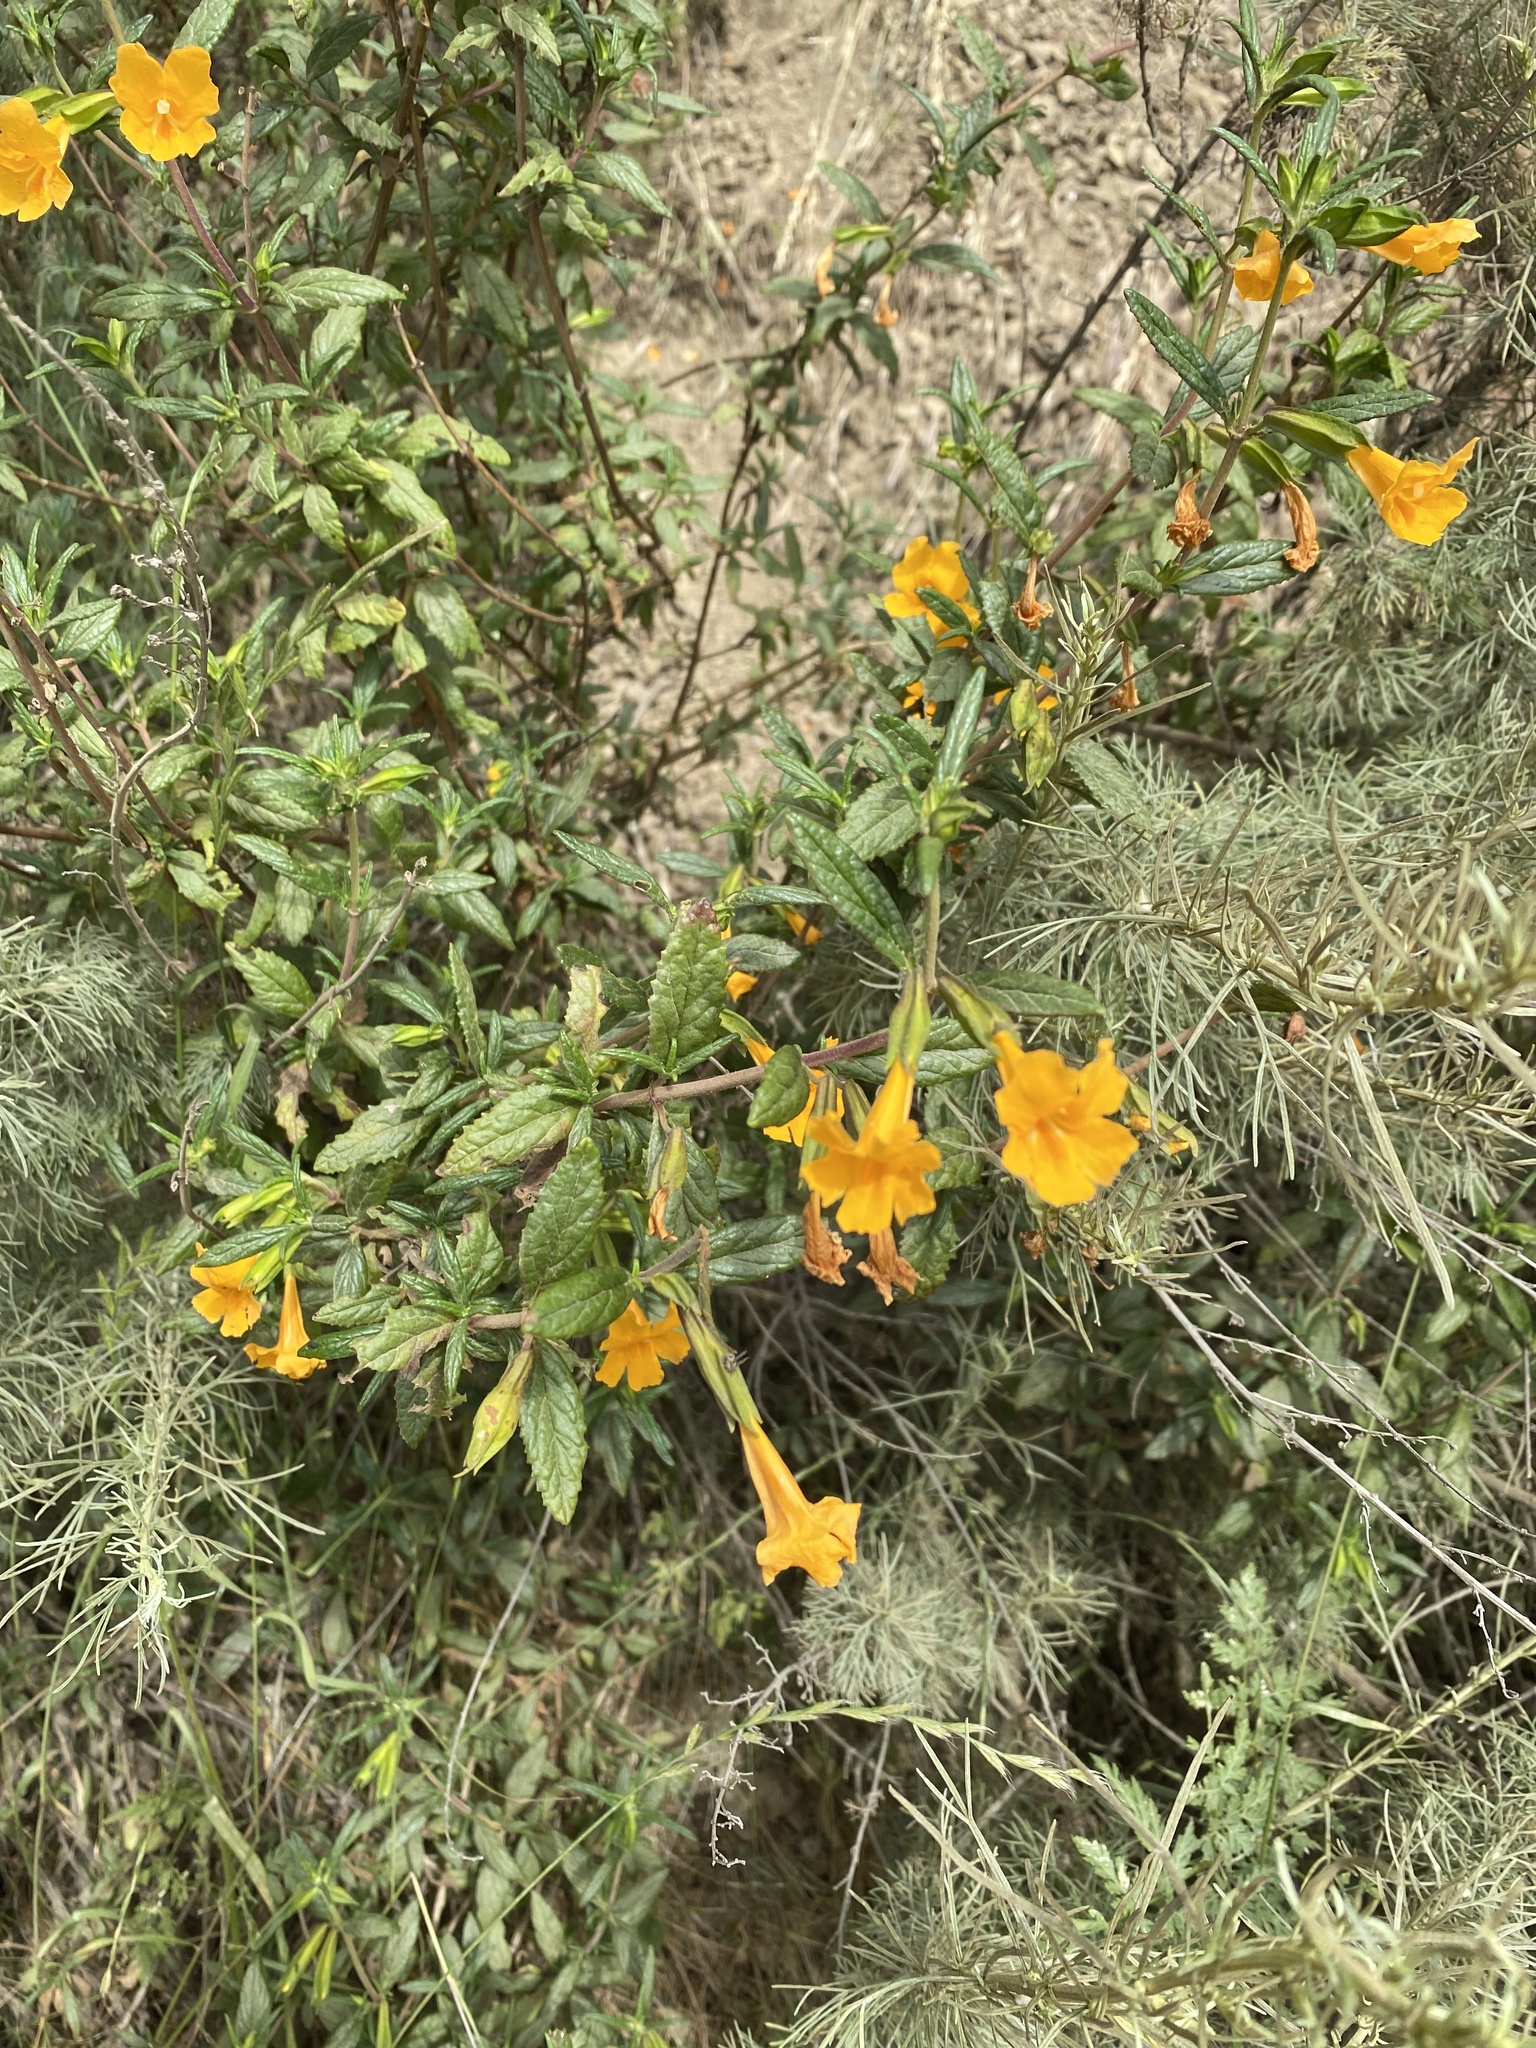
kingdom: Plantae
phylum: Tracheophyta
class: Magnoliopsida
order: Lamiales
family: Phrymaceae
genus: Diplacus
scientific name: Diplacus aurantiacus
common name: Bush monkey-flower
